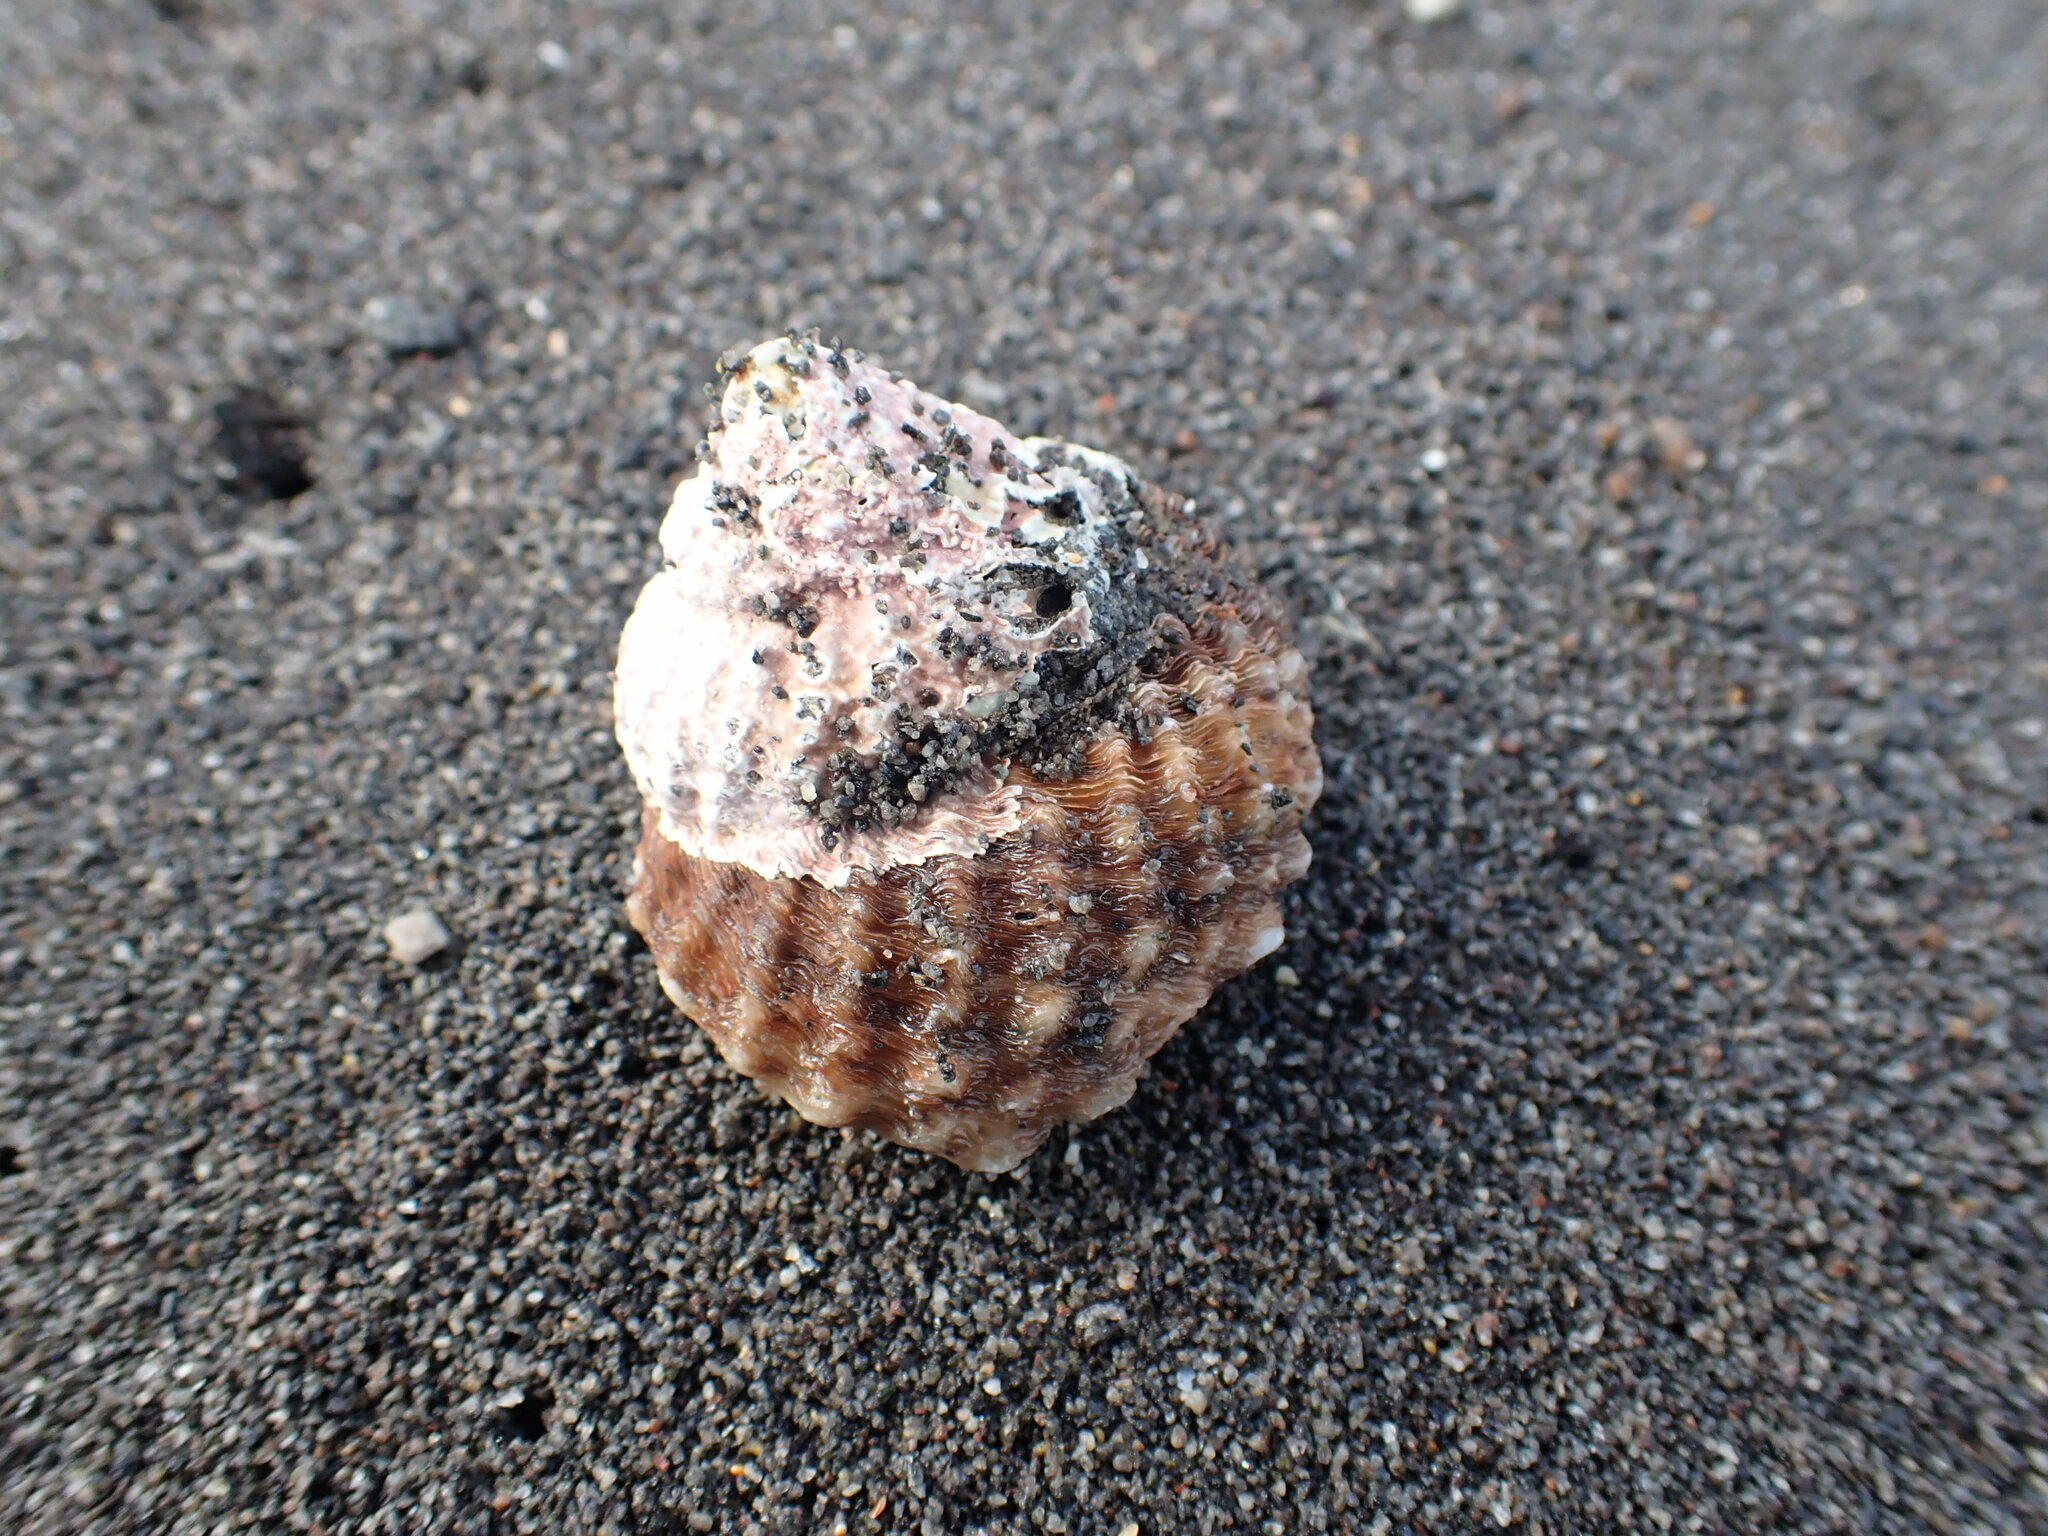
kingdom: Animalia
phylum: Mollusca
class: Gastropoda
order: Trochida
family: Turbinidae
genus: Cookia
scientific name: Cookia sulcata
